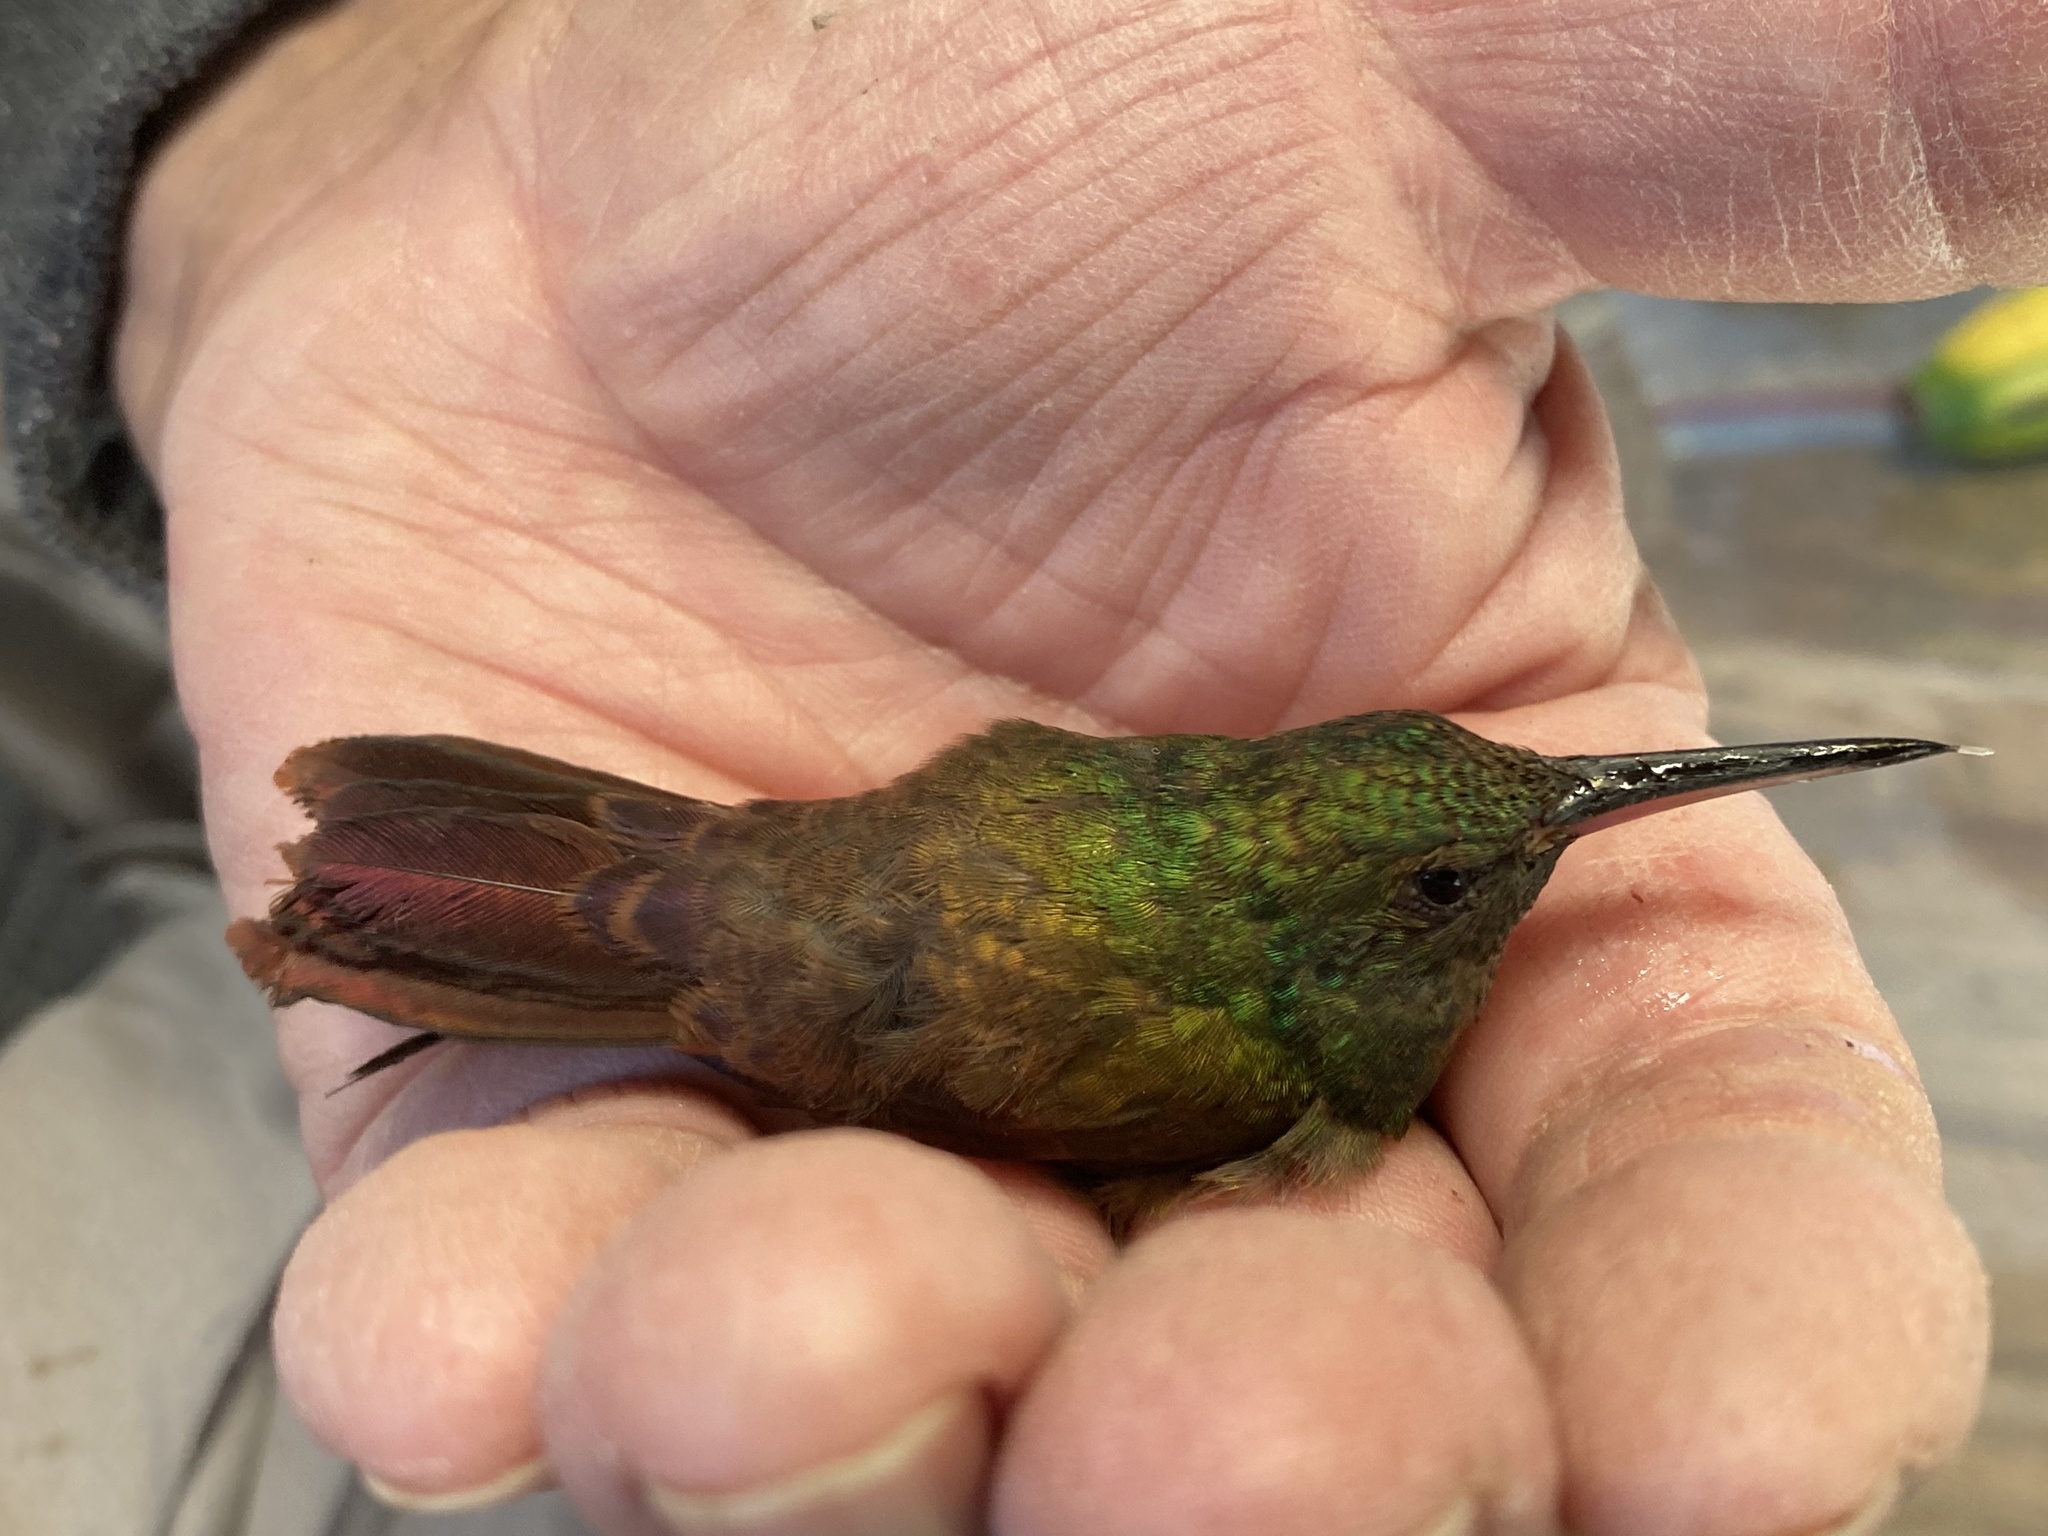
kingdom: Animalia
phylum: Chordata
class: Aves
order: Apodiformes
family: Trochilidae
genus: Saucerottia
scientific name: Saucerottia beryllina
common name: Berylline hummingbird
